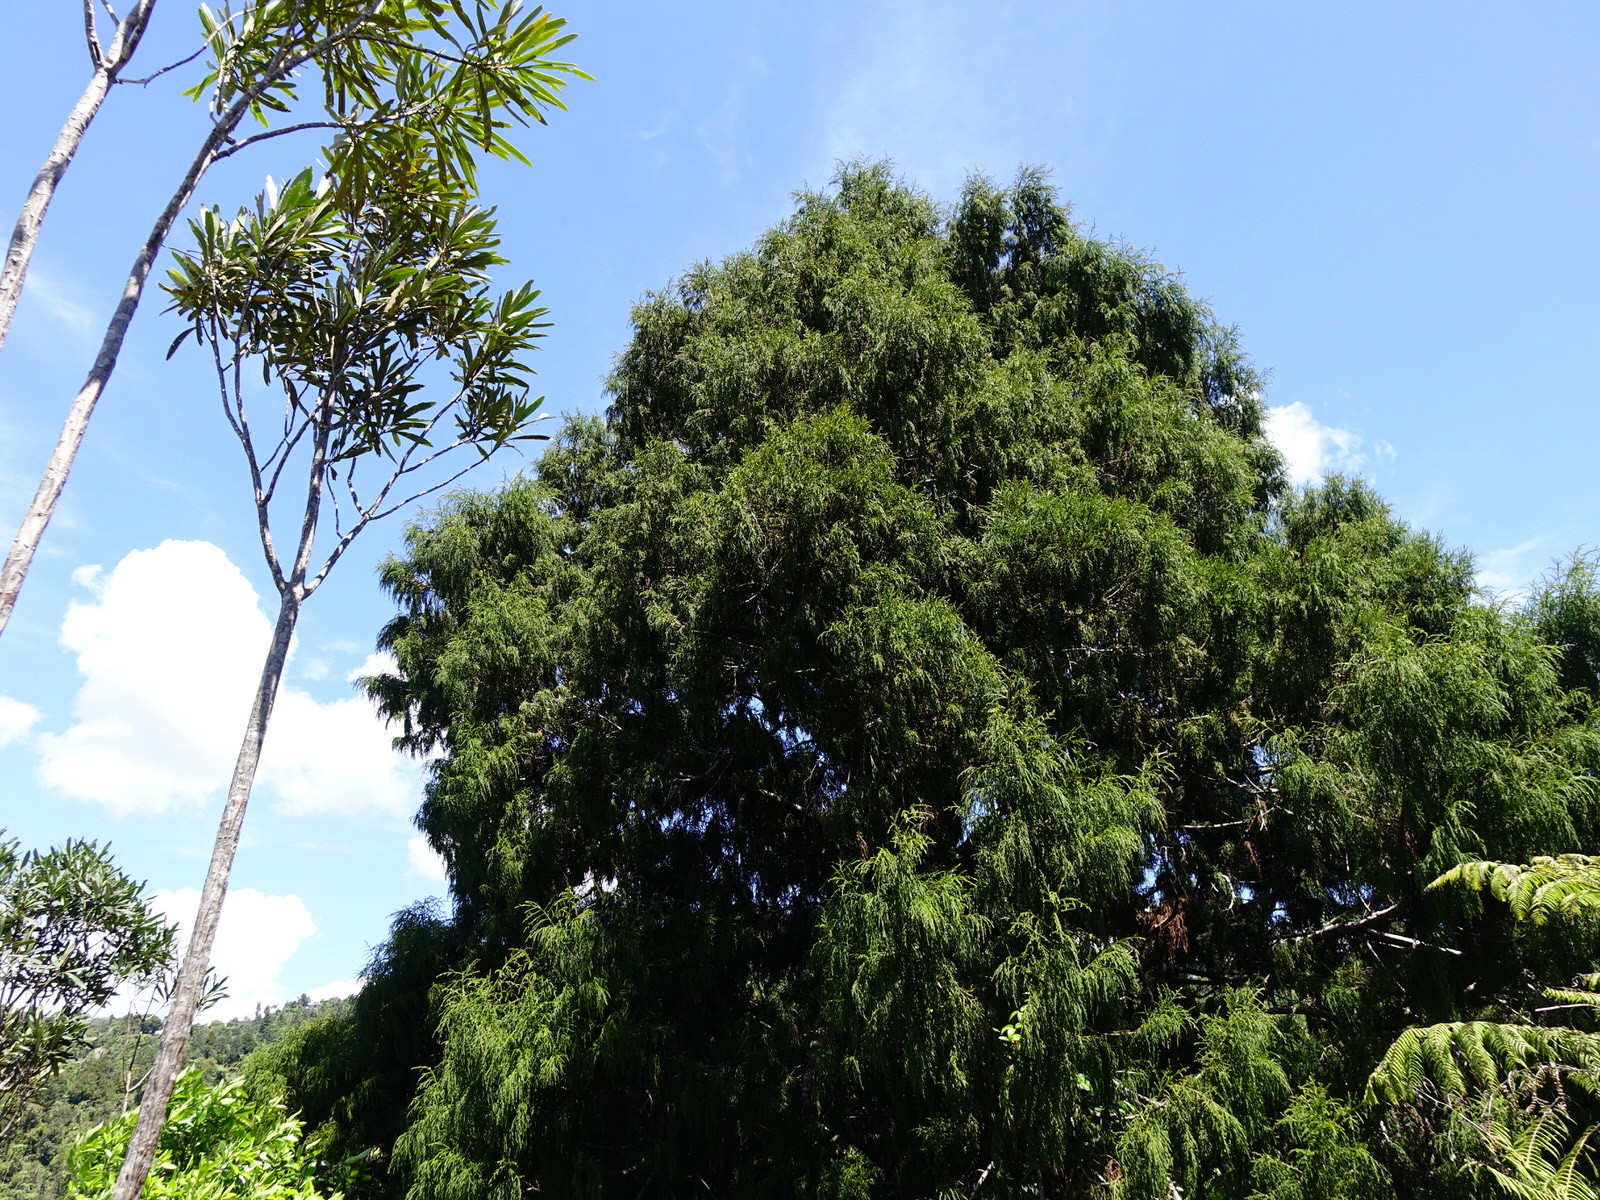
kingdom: Plantae
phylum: Tracheophyta
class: Pinopsida
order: Pinales
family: Podocarpaceae
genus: Dacrydium
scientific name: Dacrydium cupressinum
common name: Red pine
